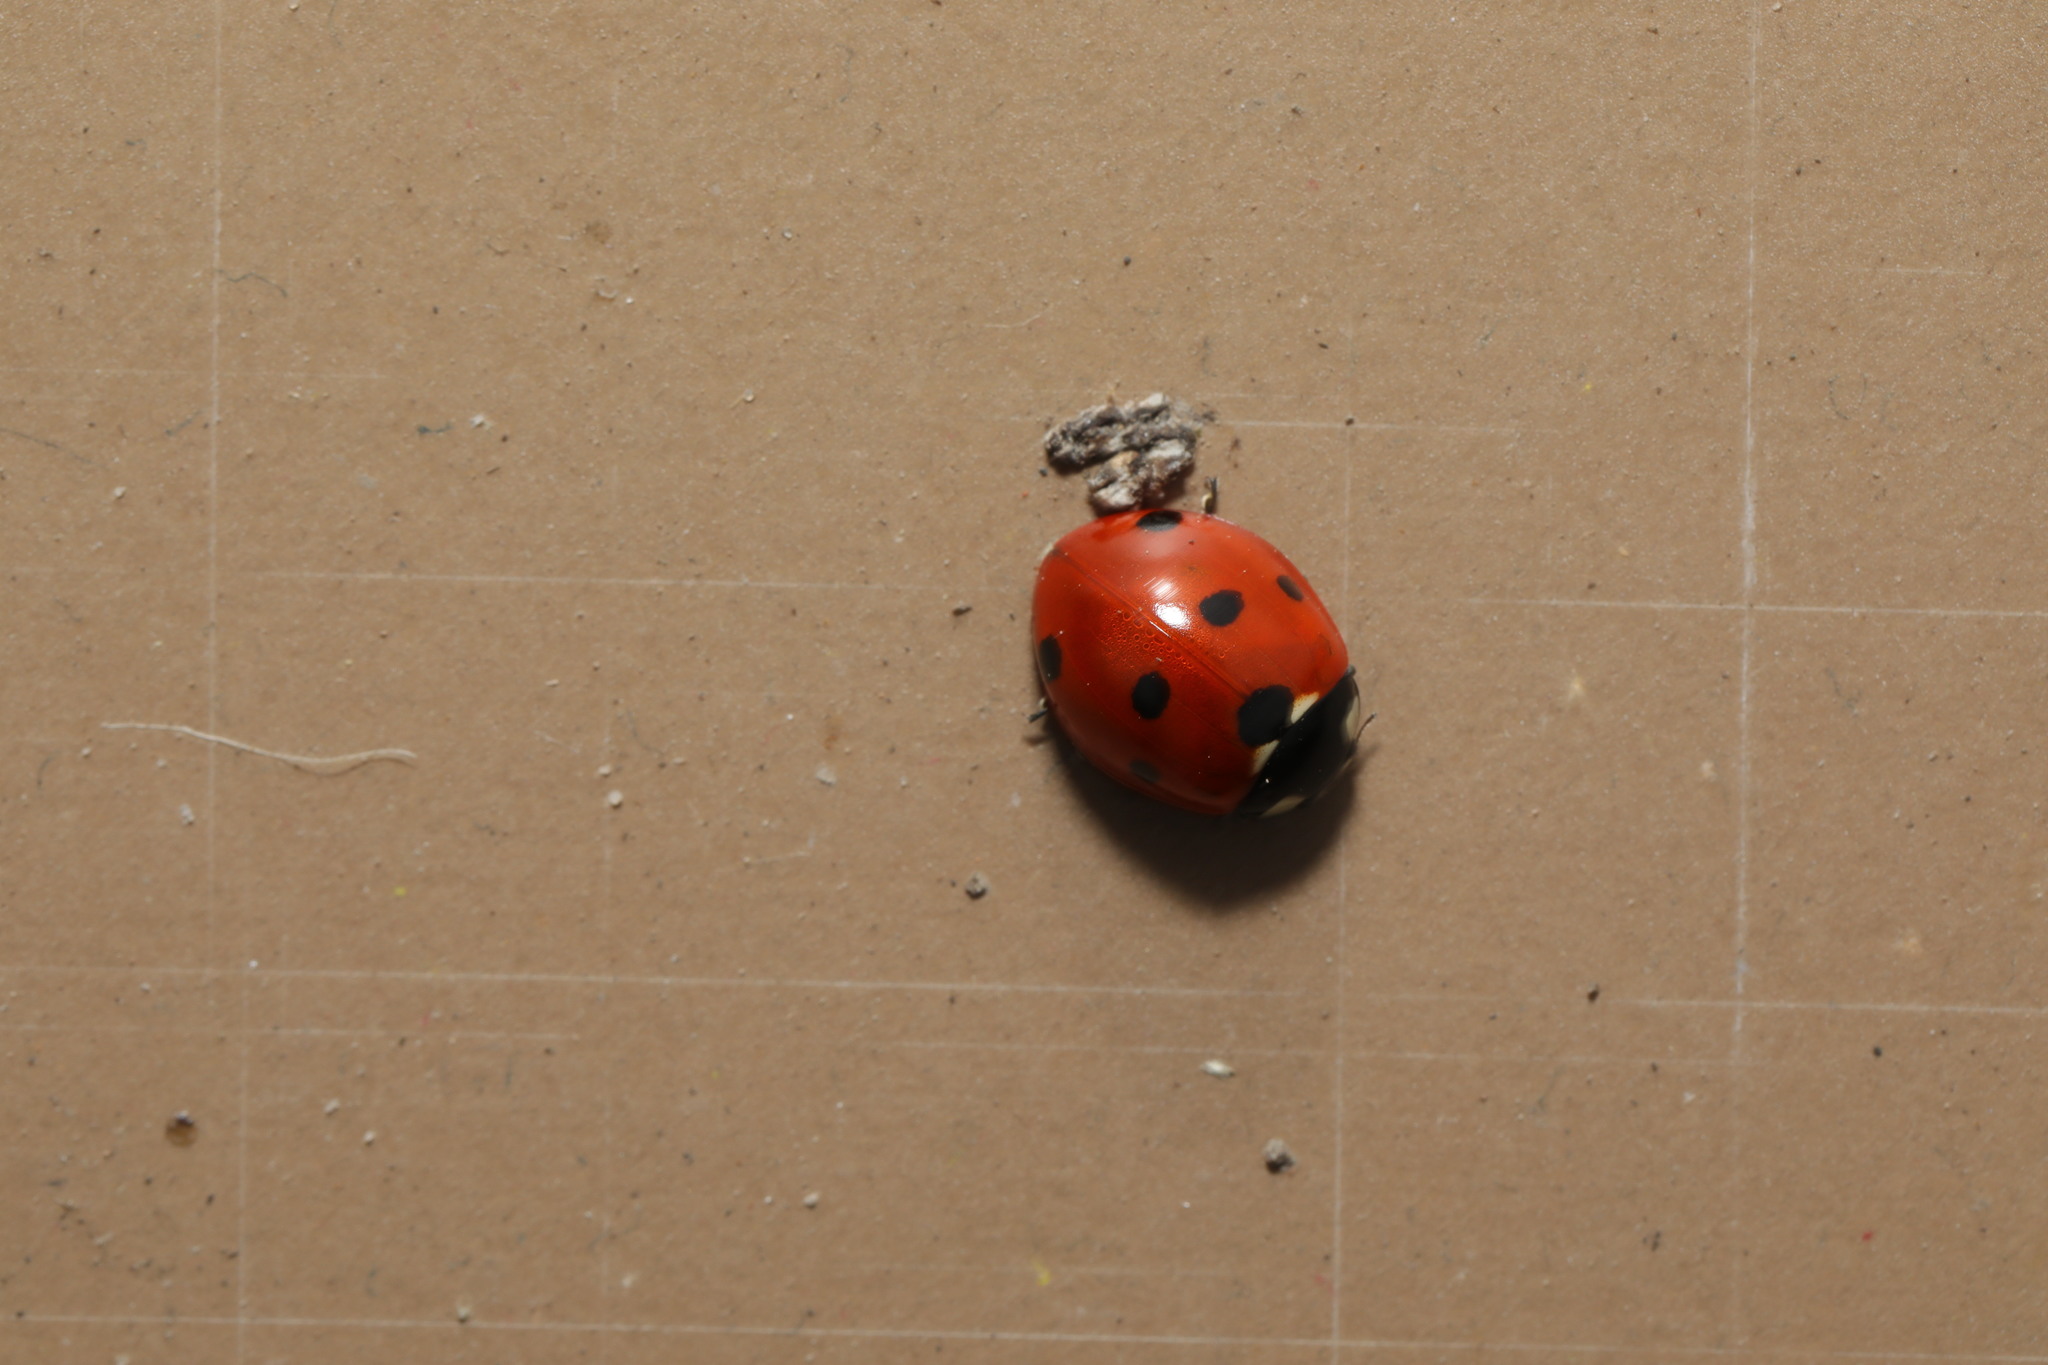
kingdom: Animalia
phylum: Arthropoda
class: Insecta
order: Coleoptera
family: Coccinellidae
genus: Coccinella
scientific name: Coccinella septempunctata
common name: Sevenspotted lady beetle
